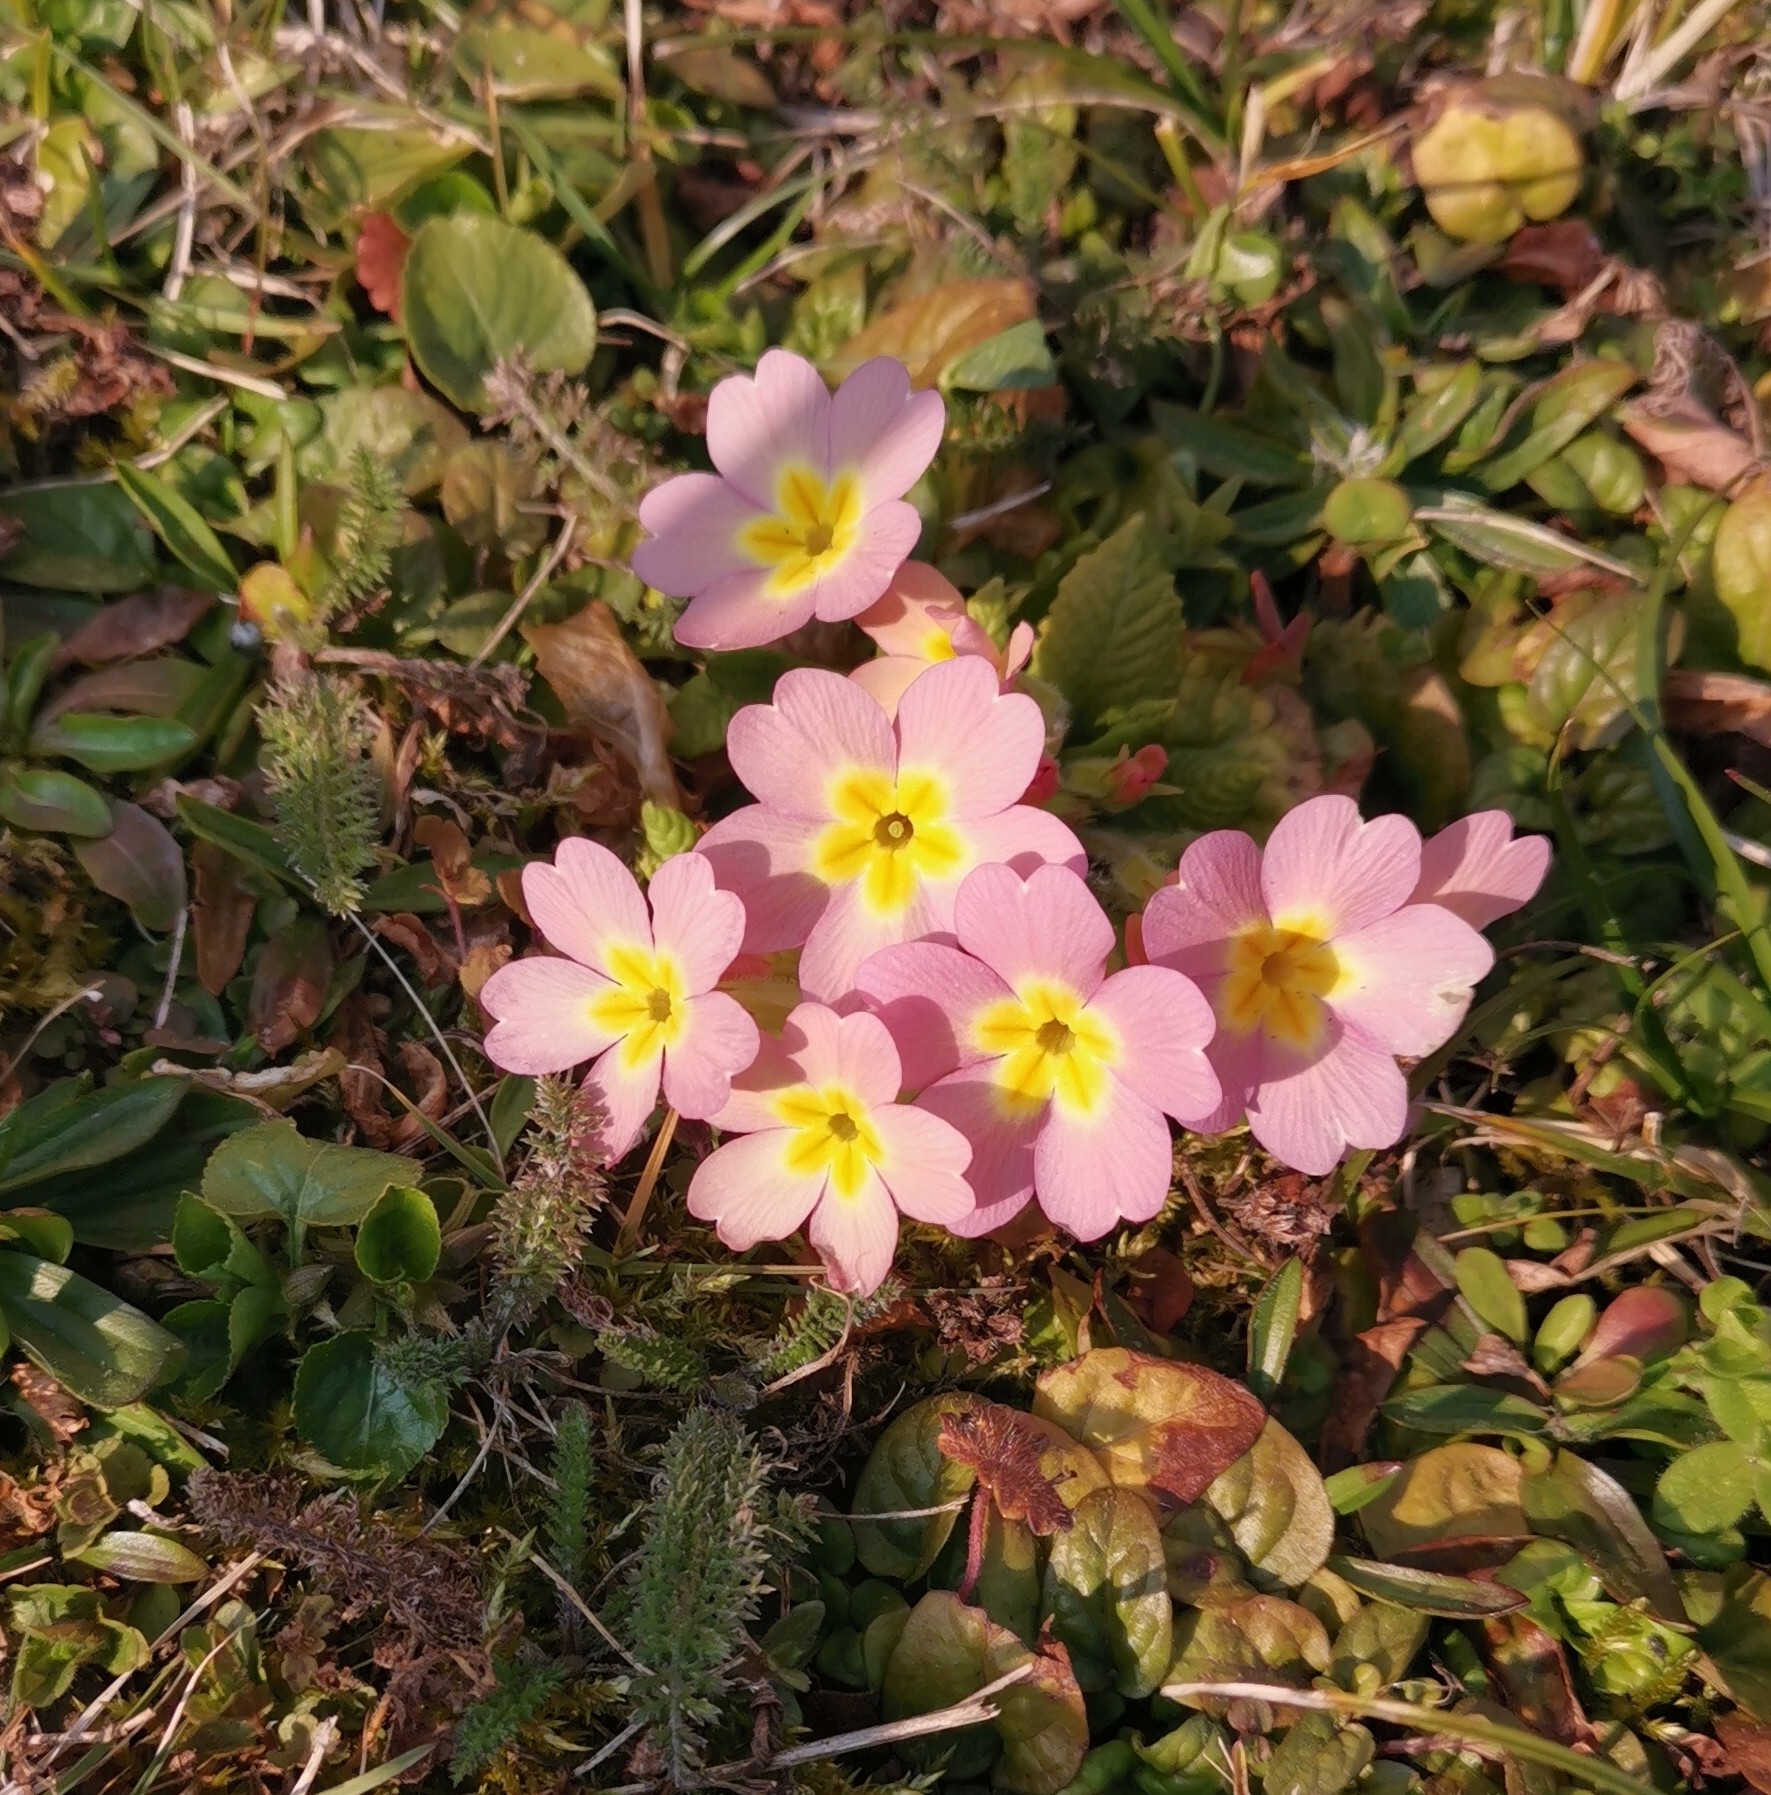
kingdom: Plantae
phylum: Tracheophyta
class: Magnoliopsida
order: Ericales
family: Primulaceae
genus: Primula
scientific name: Primula vulgaris
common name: Primrose
